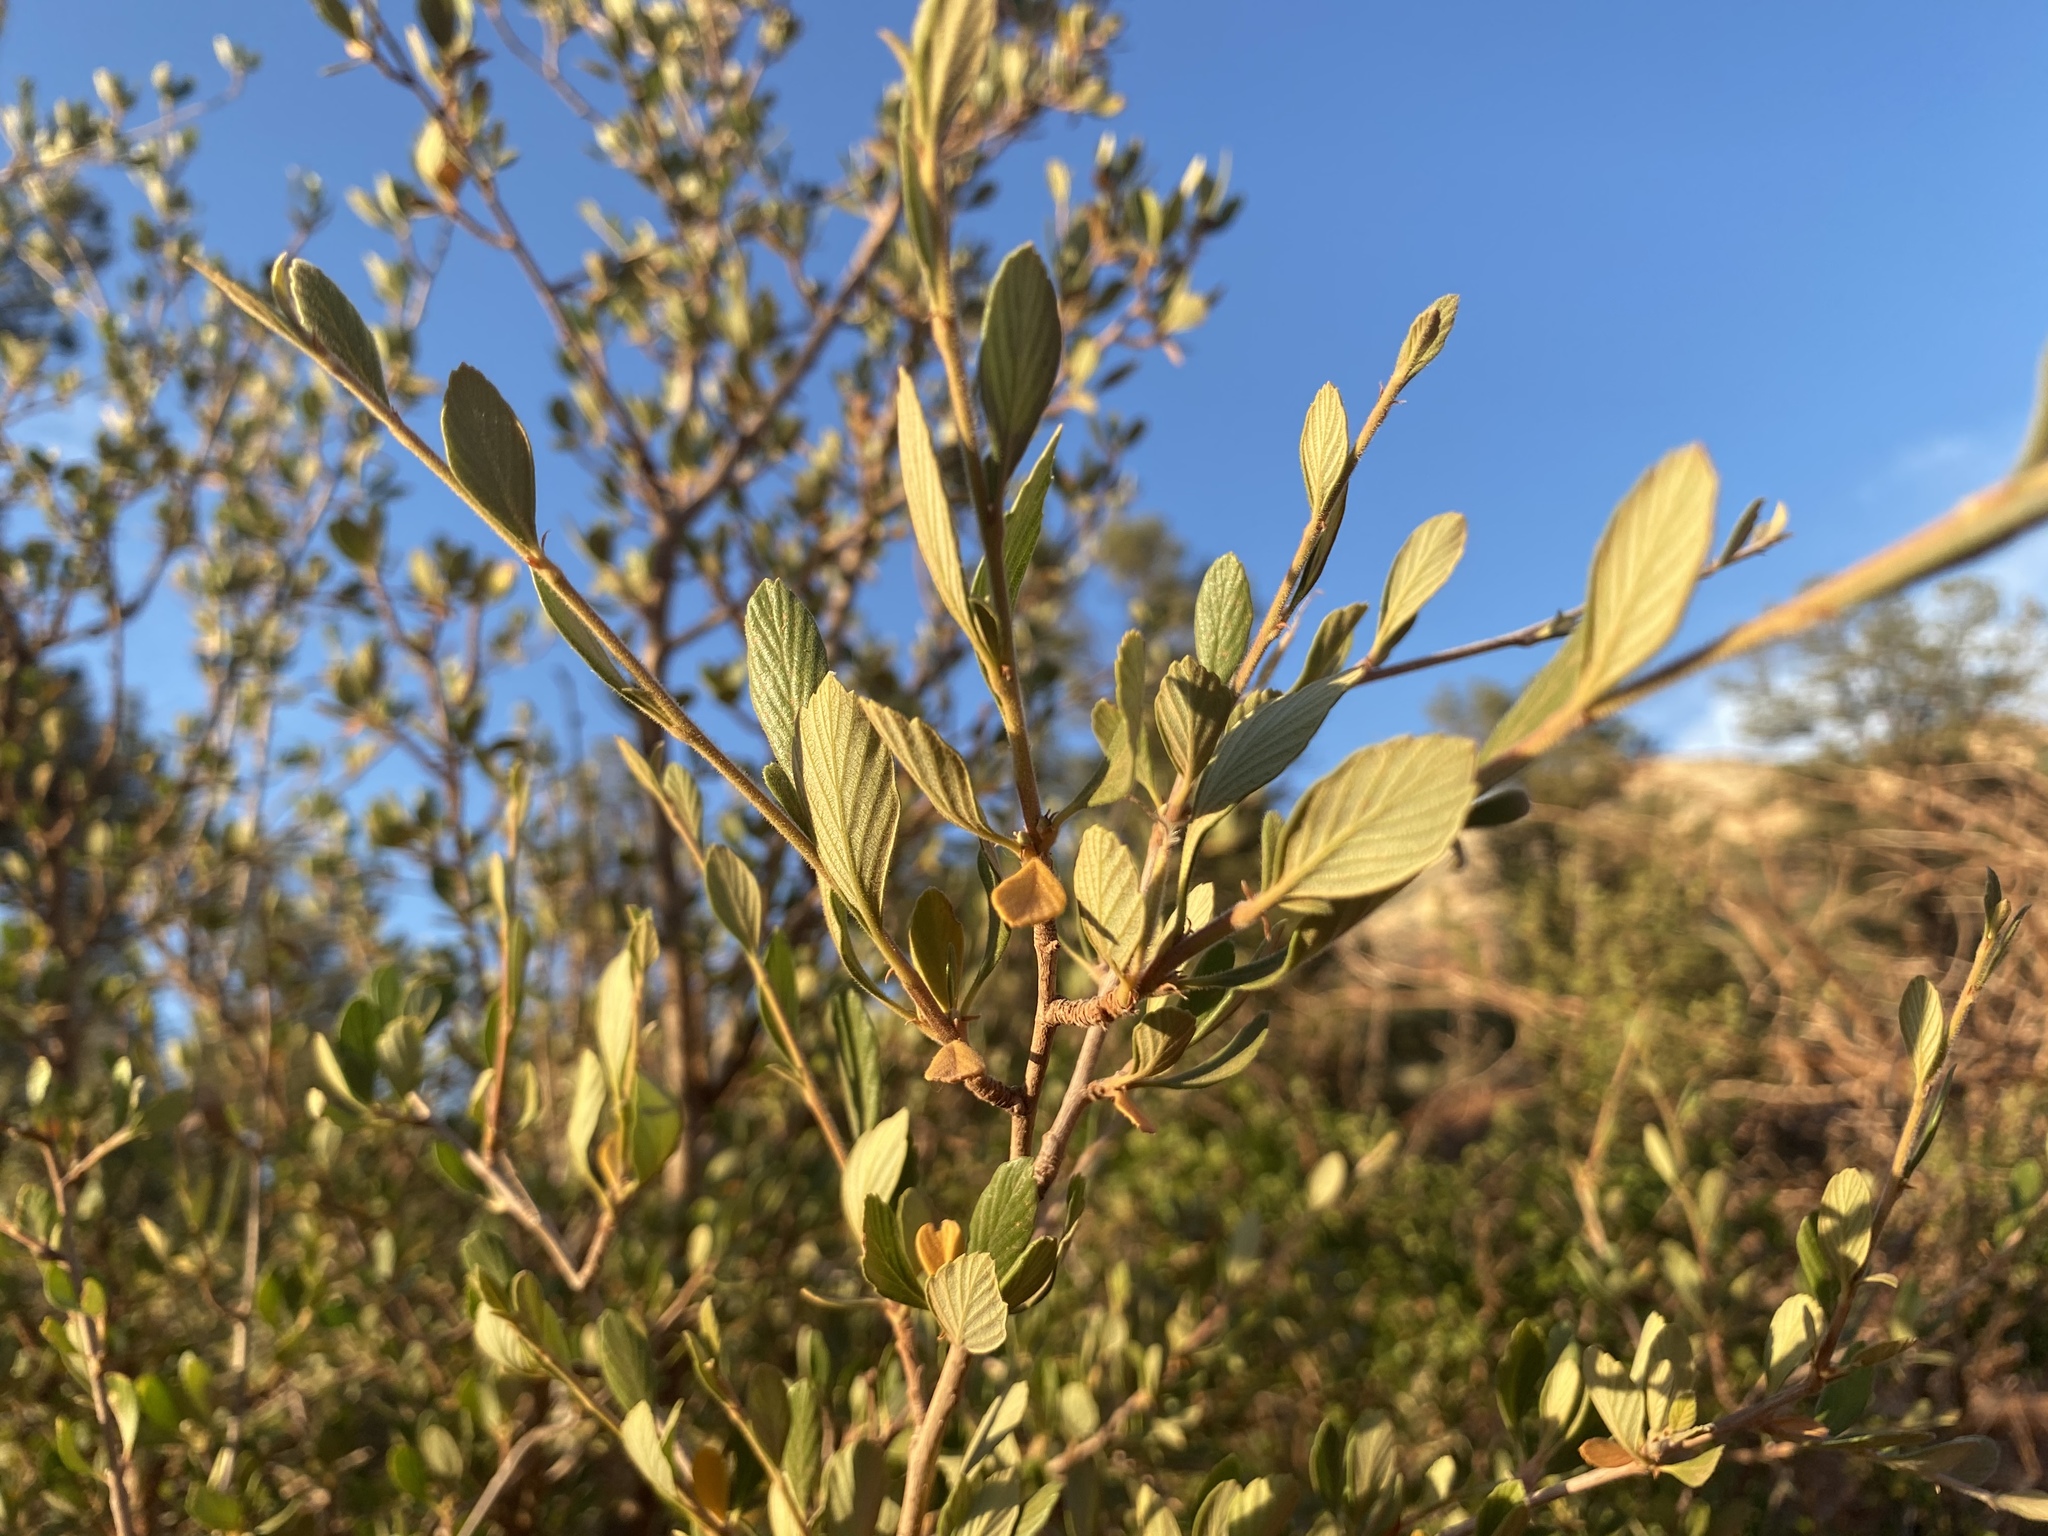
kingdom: Plantae
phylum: Tracheophyta
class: Magnoliopsida
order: Rosales
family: Rosaceae
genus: Cercocarpus
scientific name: Cercocarpus montanus
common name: Alder-leaf cercocarpus
